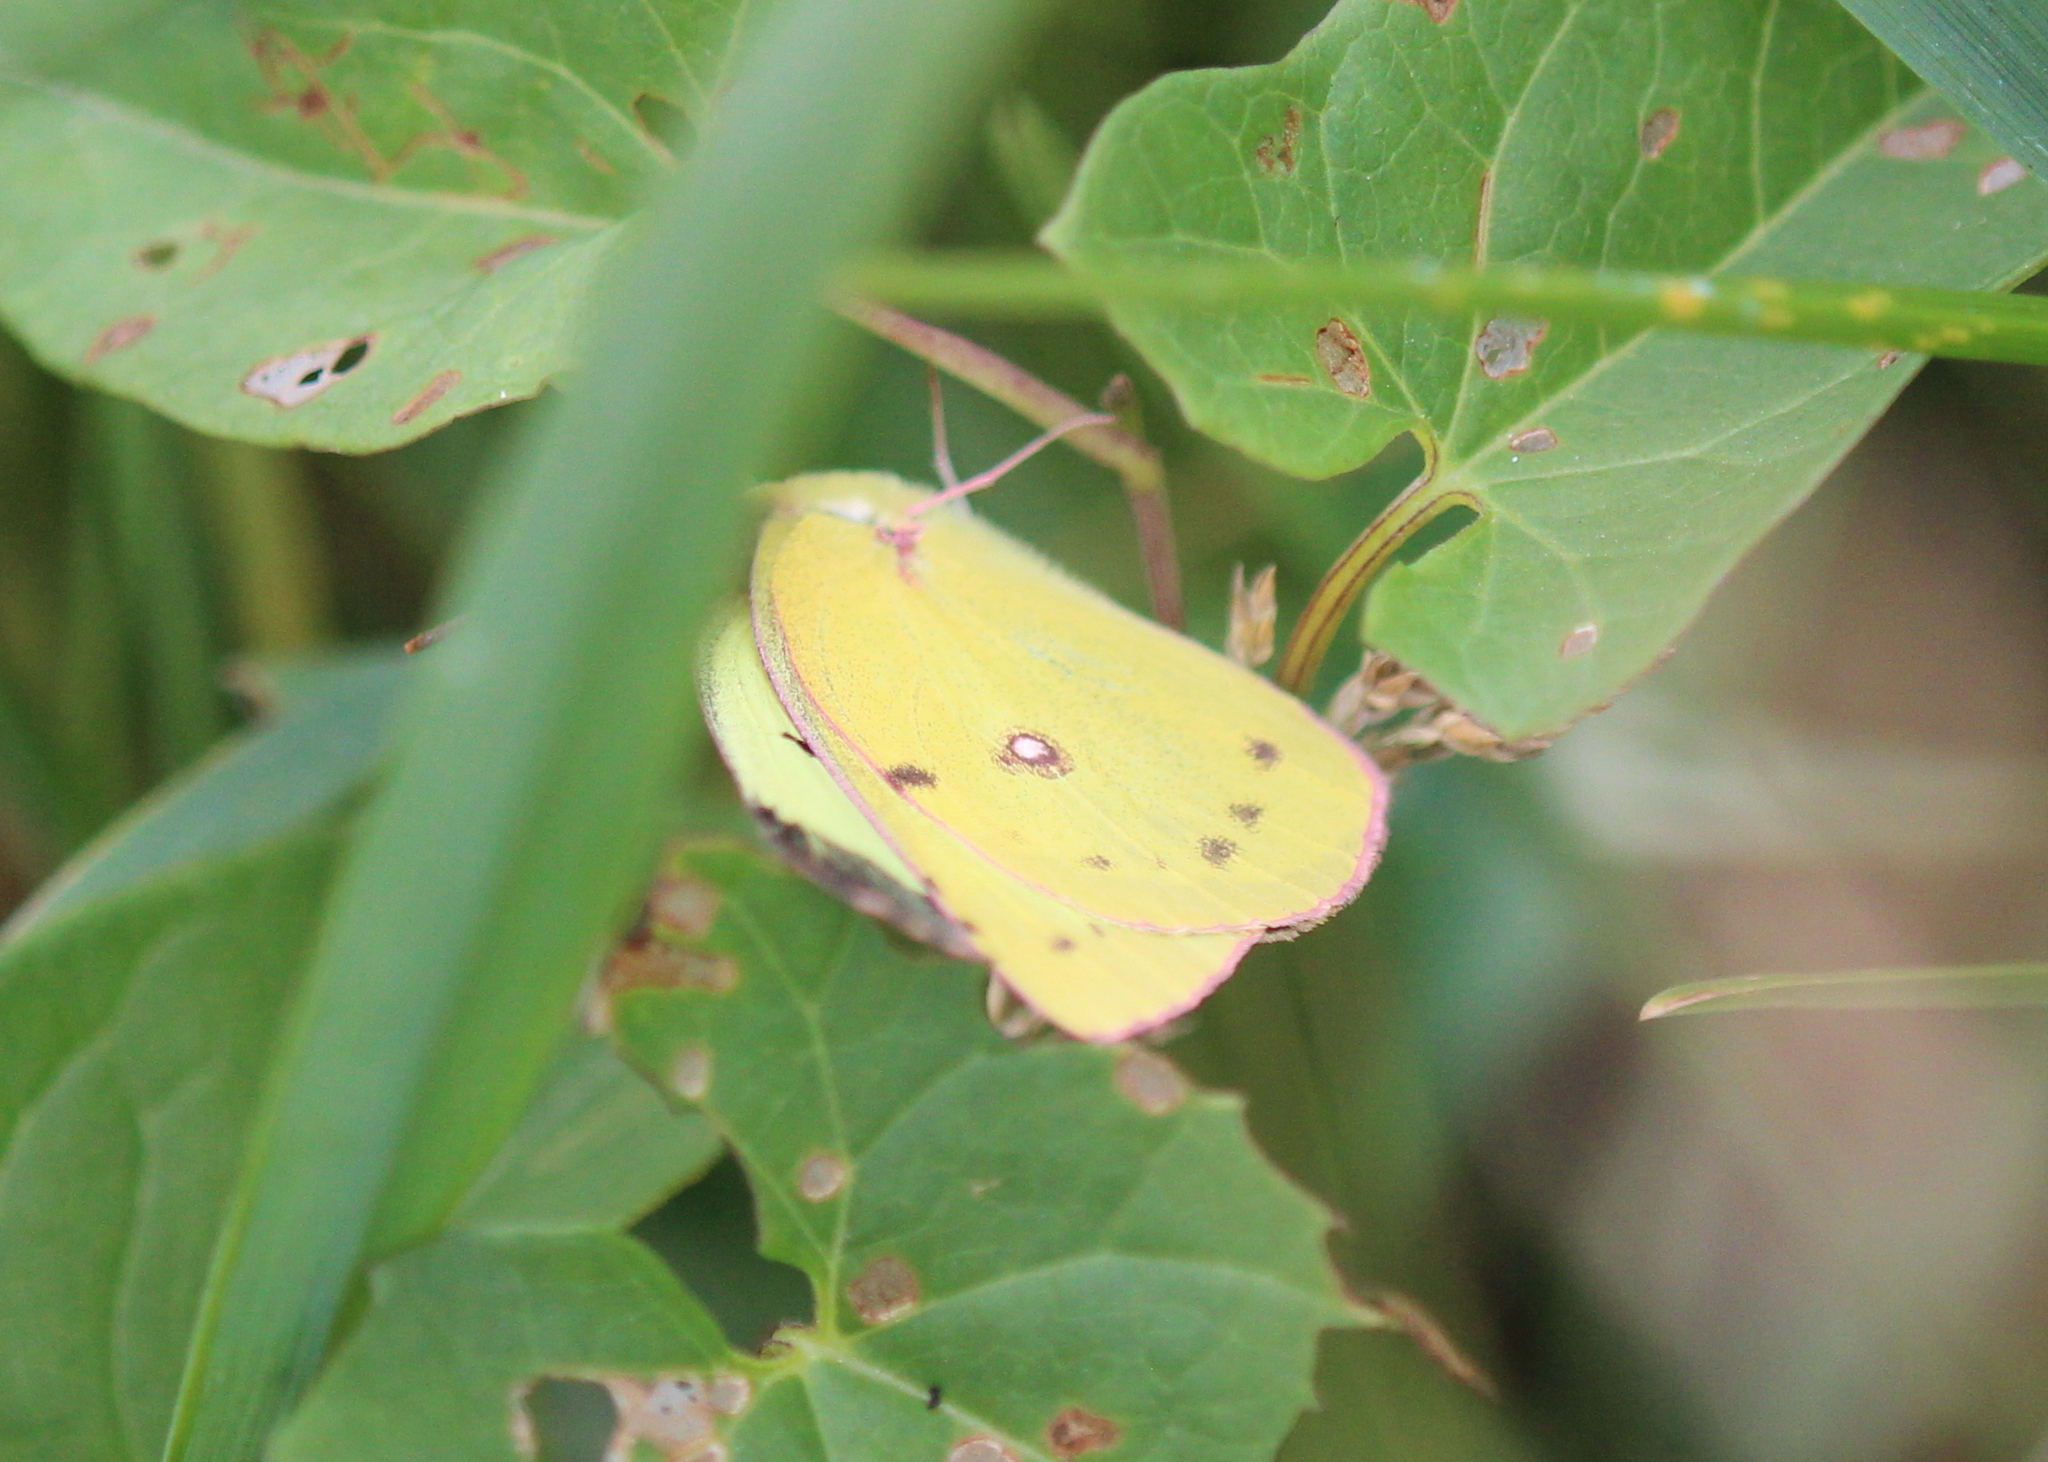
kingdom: Animalia
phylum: Arthropoda
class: Insecta
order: Lepidoptera
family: Pieridae
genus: Colias
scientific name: Colias philodice
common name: Clouded sulphur
